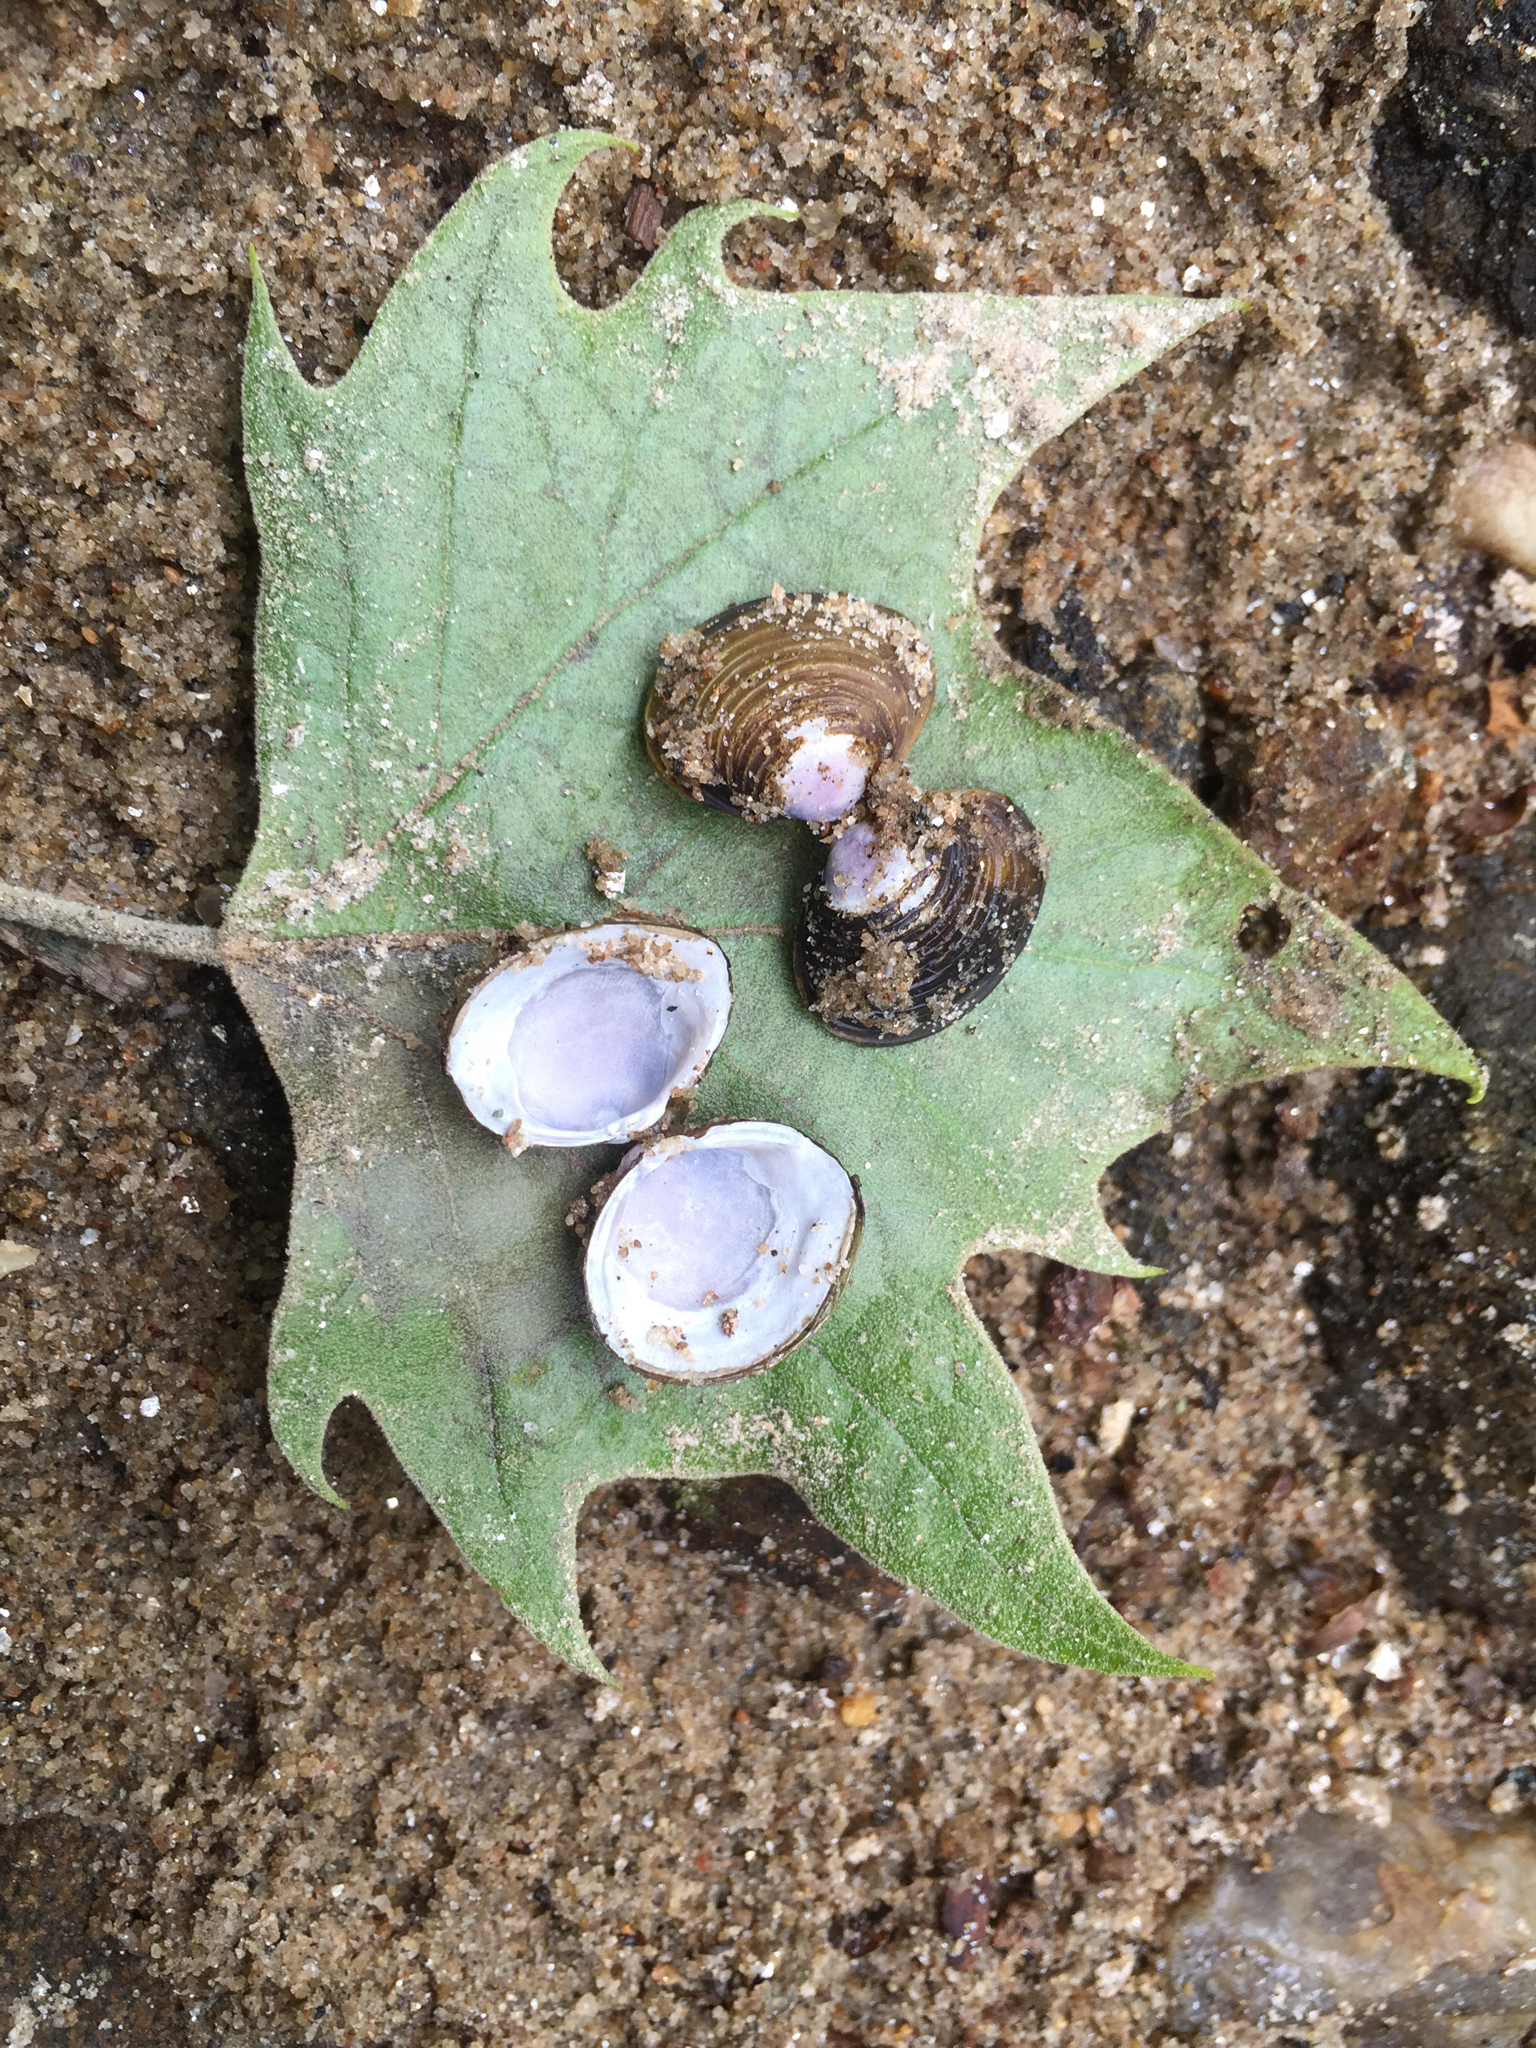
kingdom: Animalia
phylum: Mollusca
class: Bivalvia
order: Venerida
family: Cyrenidae
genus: Corbicula
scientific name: Corbicula fluminea
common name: Asian clam
